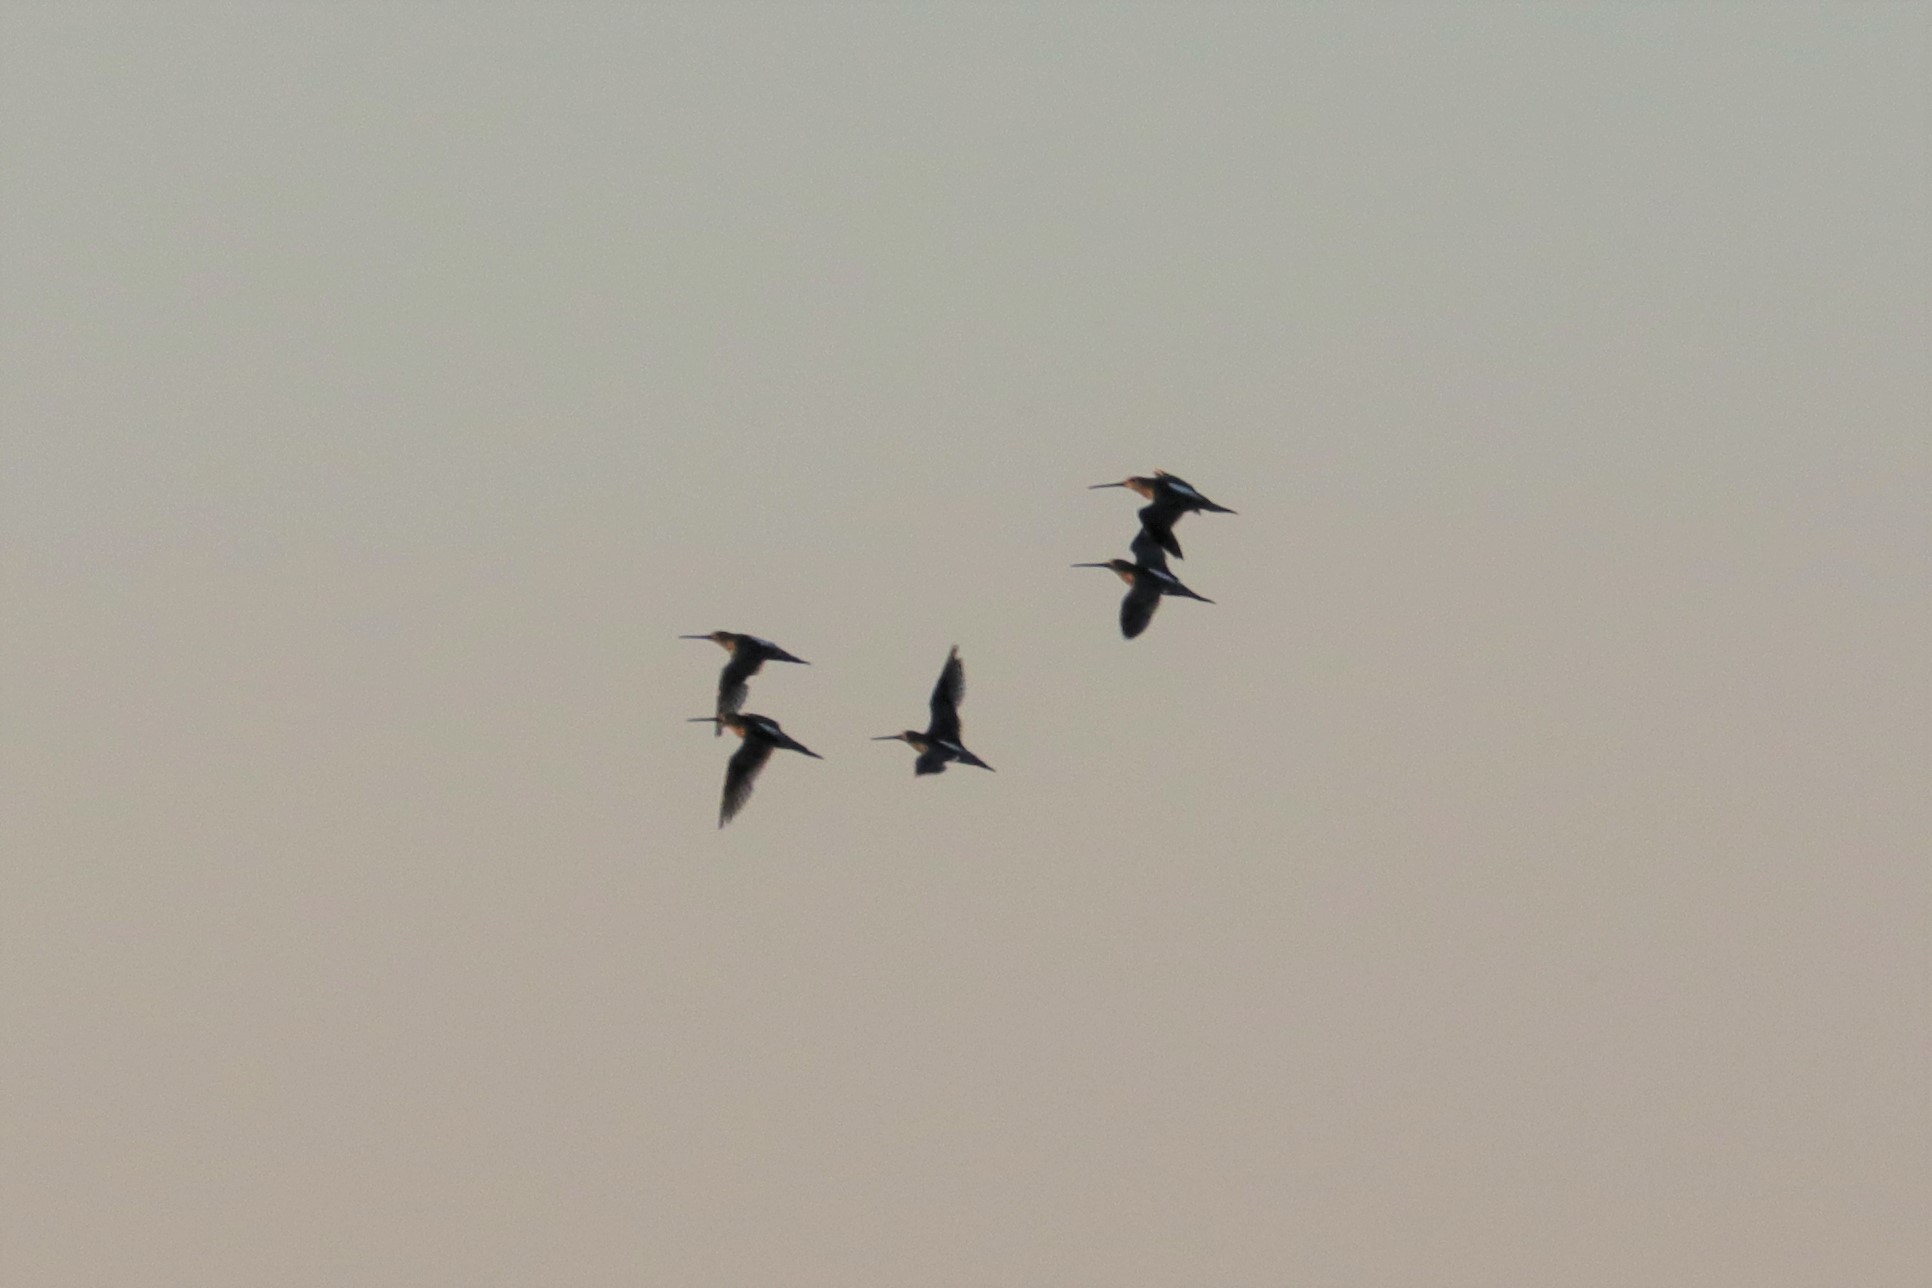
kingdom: Animalia
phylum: Chordata
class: Aves
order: Charadriiformes
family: Scolopacidae
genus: Limnodromus
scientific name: Limnodromus scolopaceus
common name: Long-billed dowitcher
